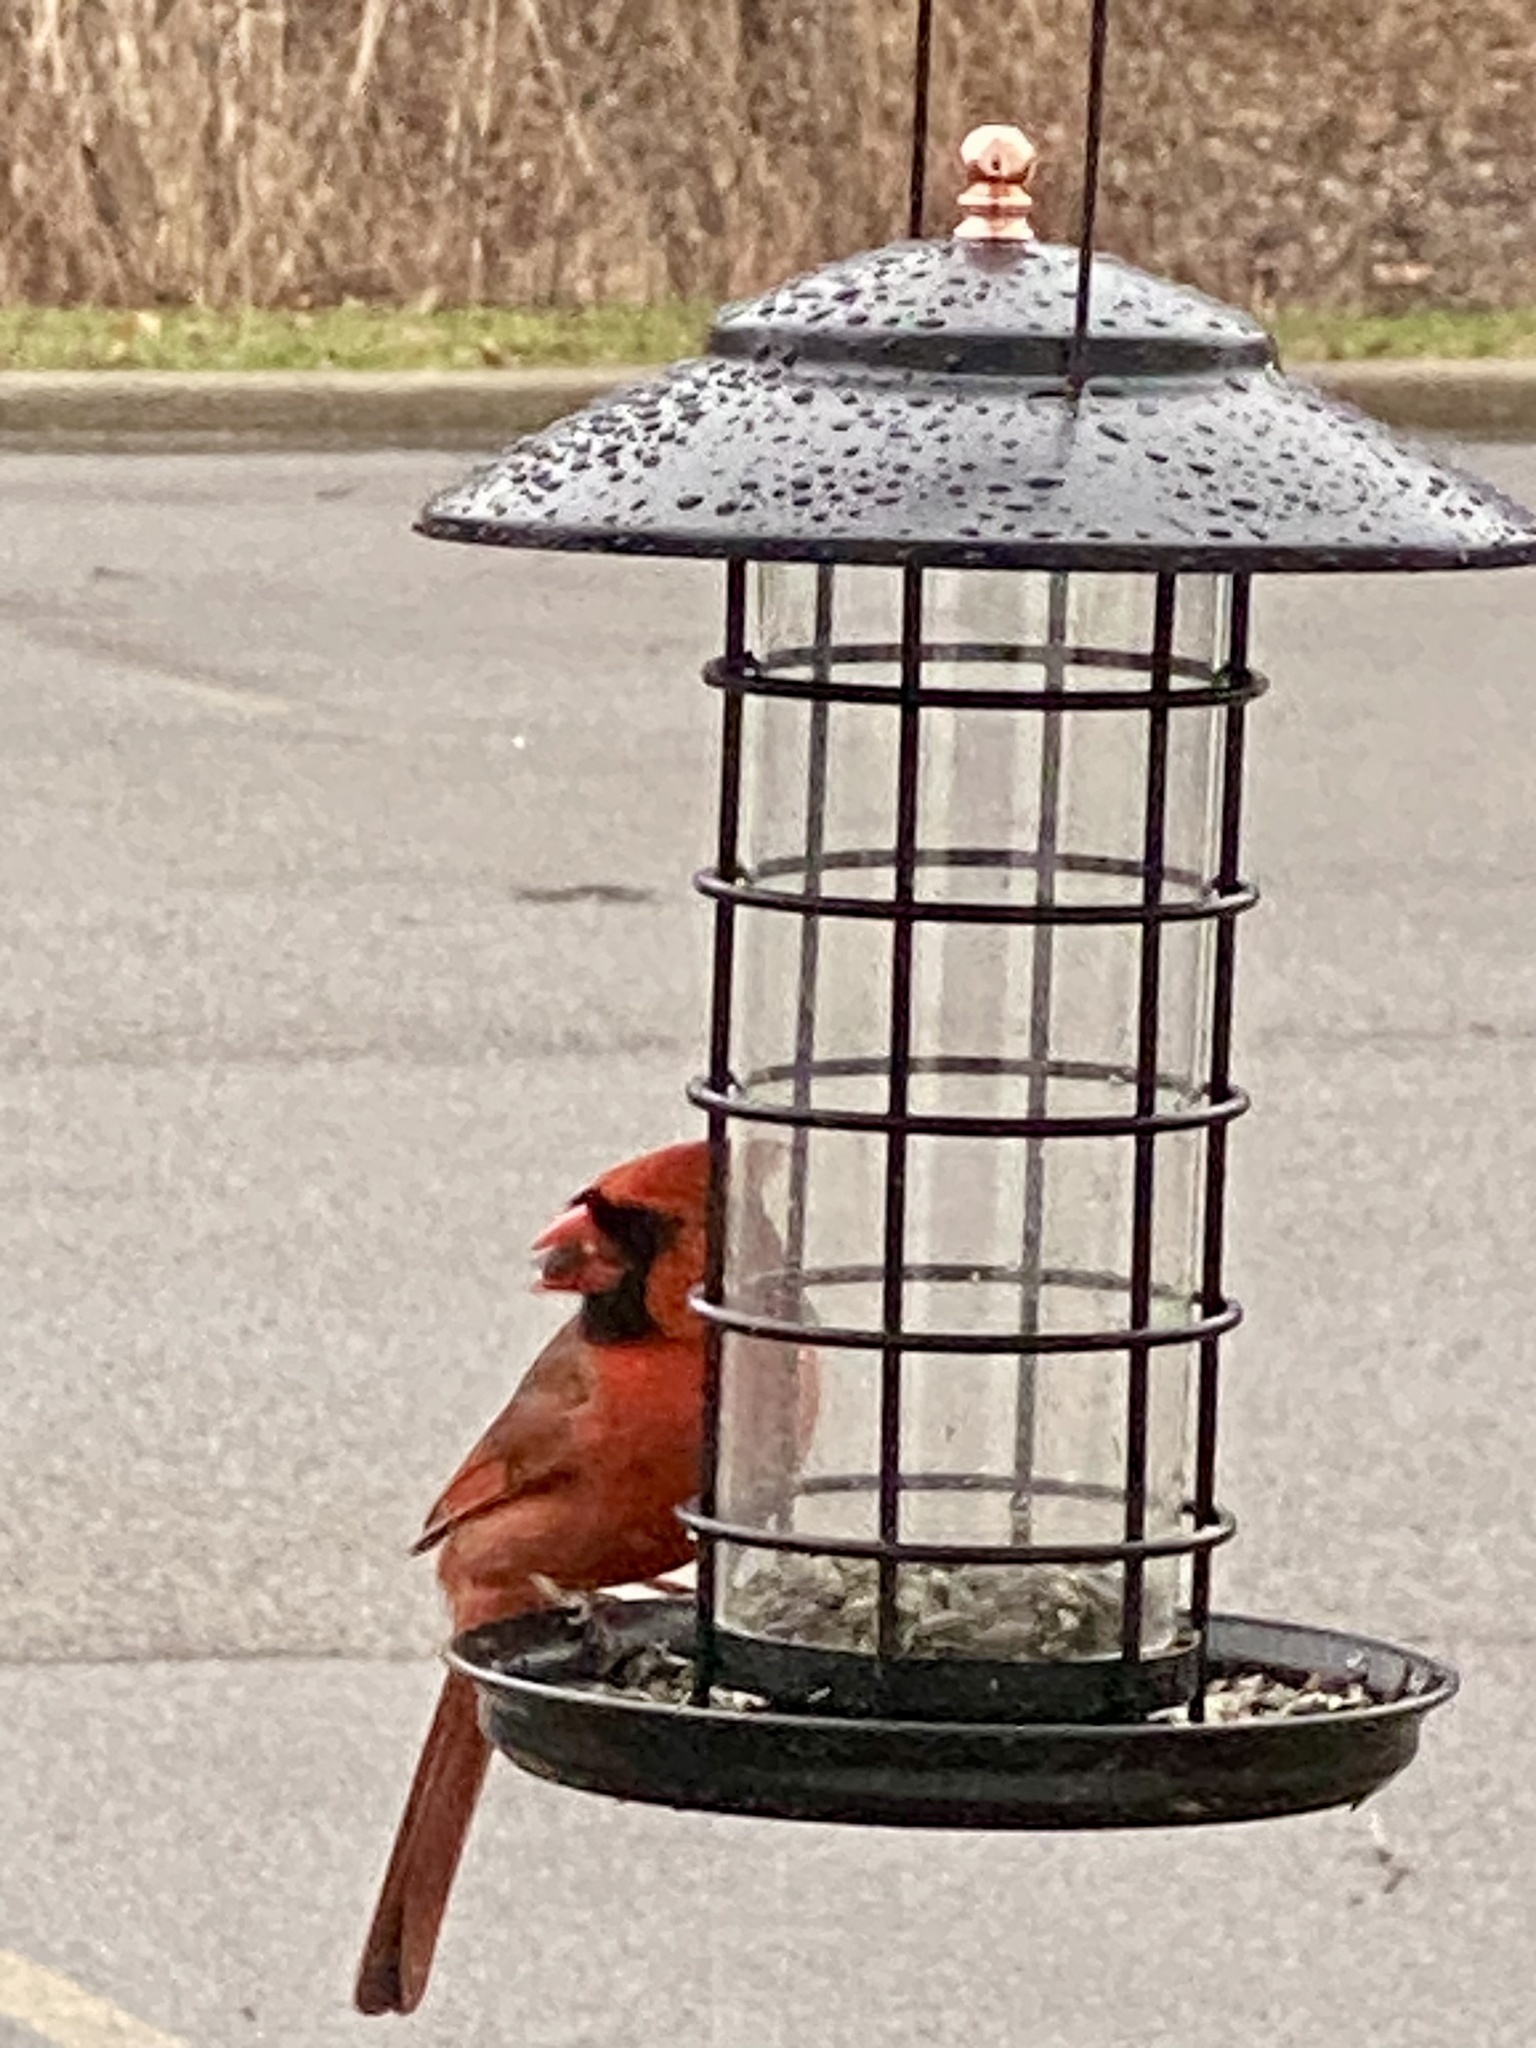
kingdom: Animalia
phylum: Chordata
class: Aves
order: Passeriformes
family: Cardinalidae
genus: Cardinalis
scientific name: Cardinalis cardinalis
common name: Northern cardinal
